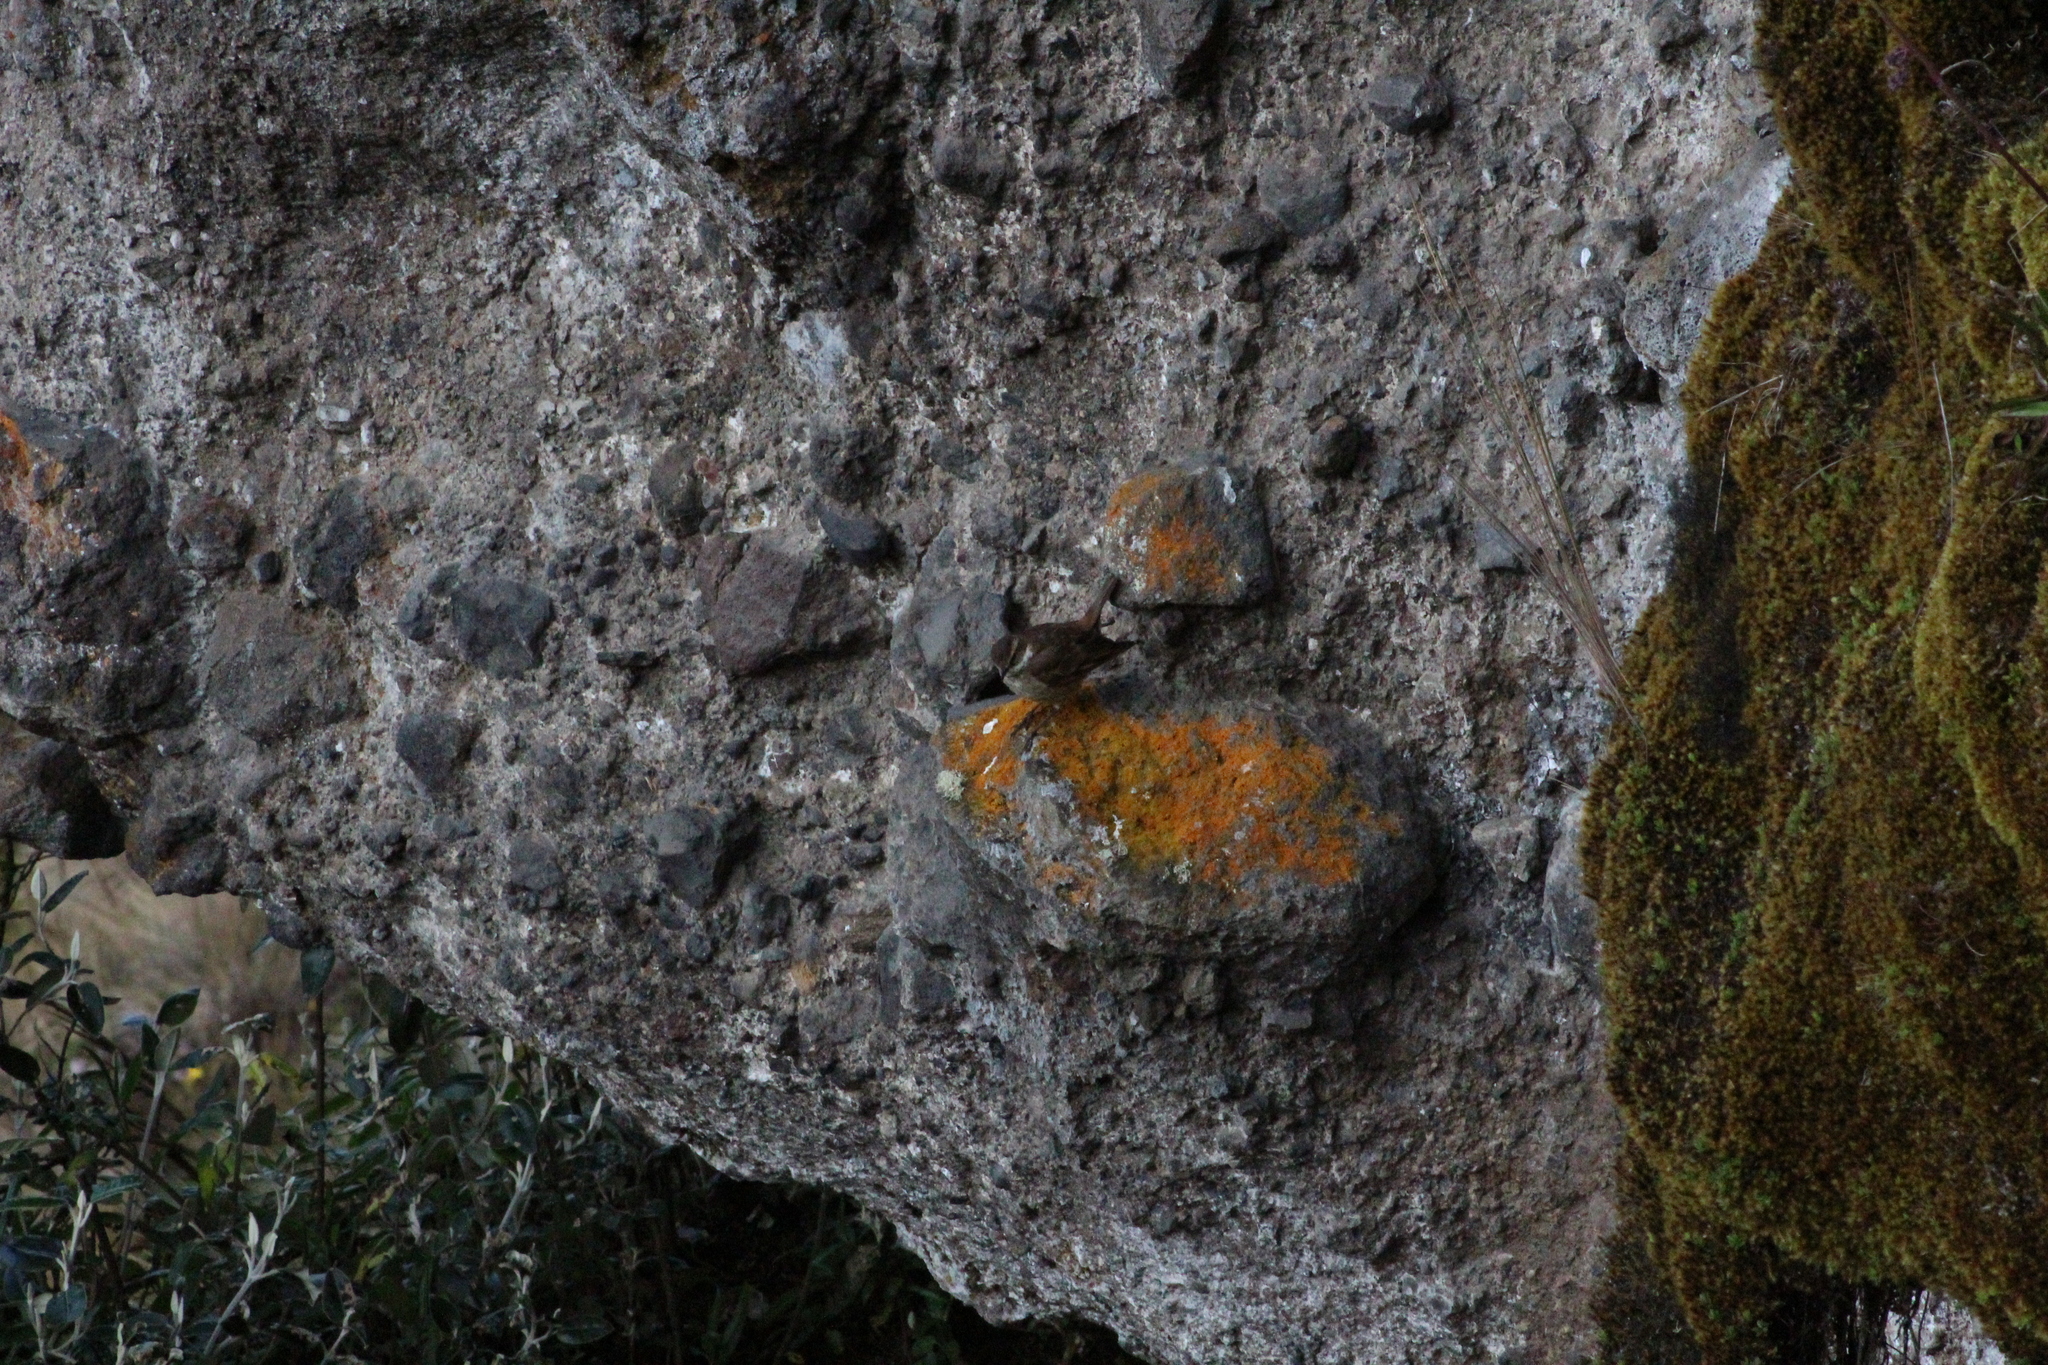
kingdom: Animalia
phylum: Chordata
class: Aves
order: Passeriformes
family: Furnariidae
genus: Cinclodes
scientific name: Cinclodes albidiventris
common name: Chestnut-winged cinclodes
